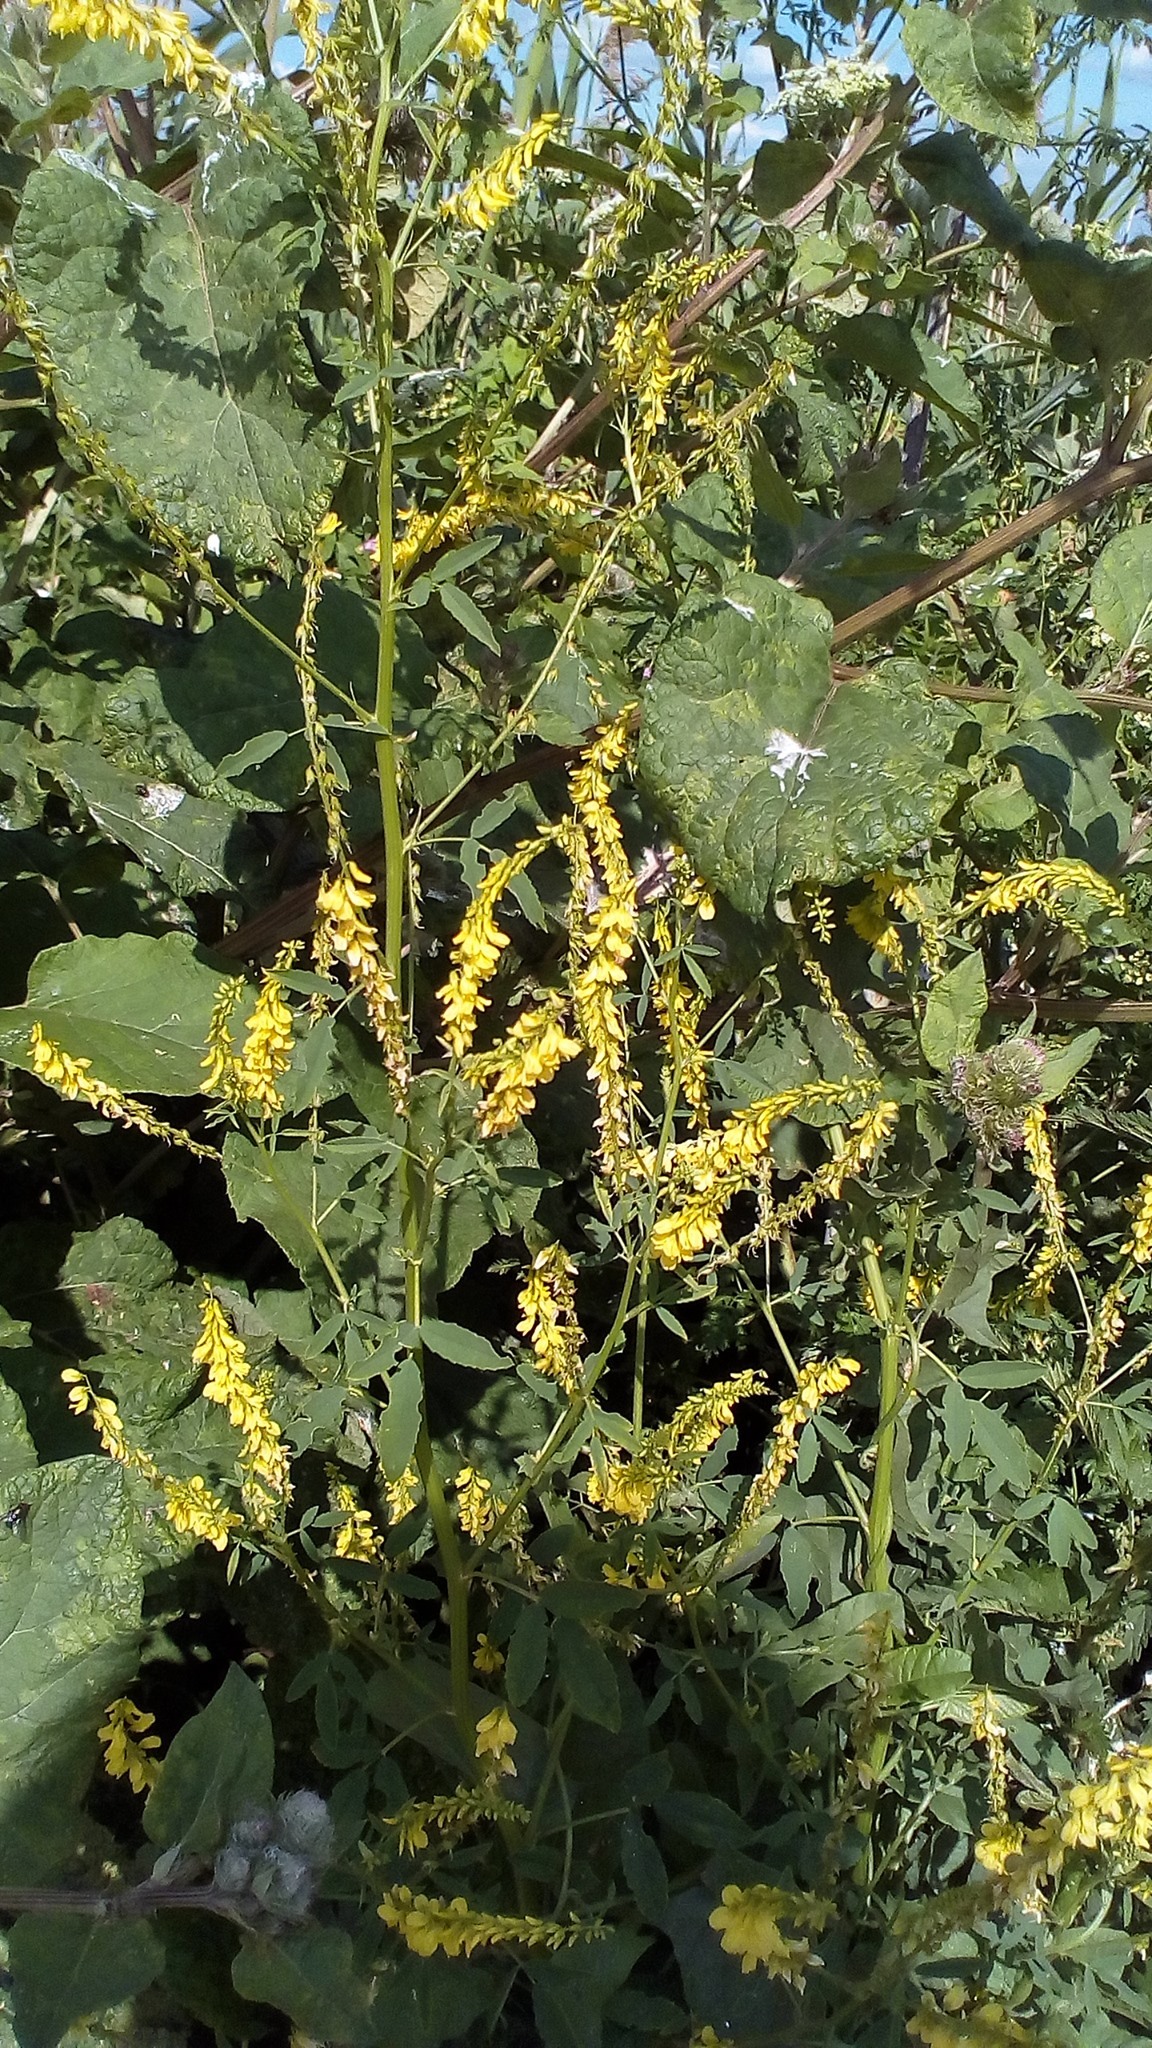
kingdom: Plantae
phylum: Tracheophyta
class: Magnoliopsida
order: Fabales
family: Fabaceae
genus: Melilotus
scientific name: Melilotus officinalis
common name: Sweetclover
